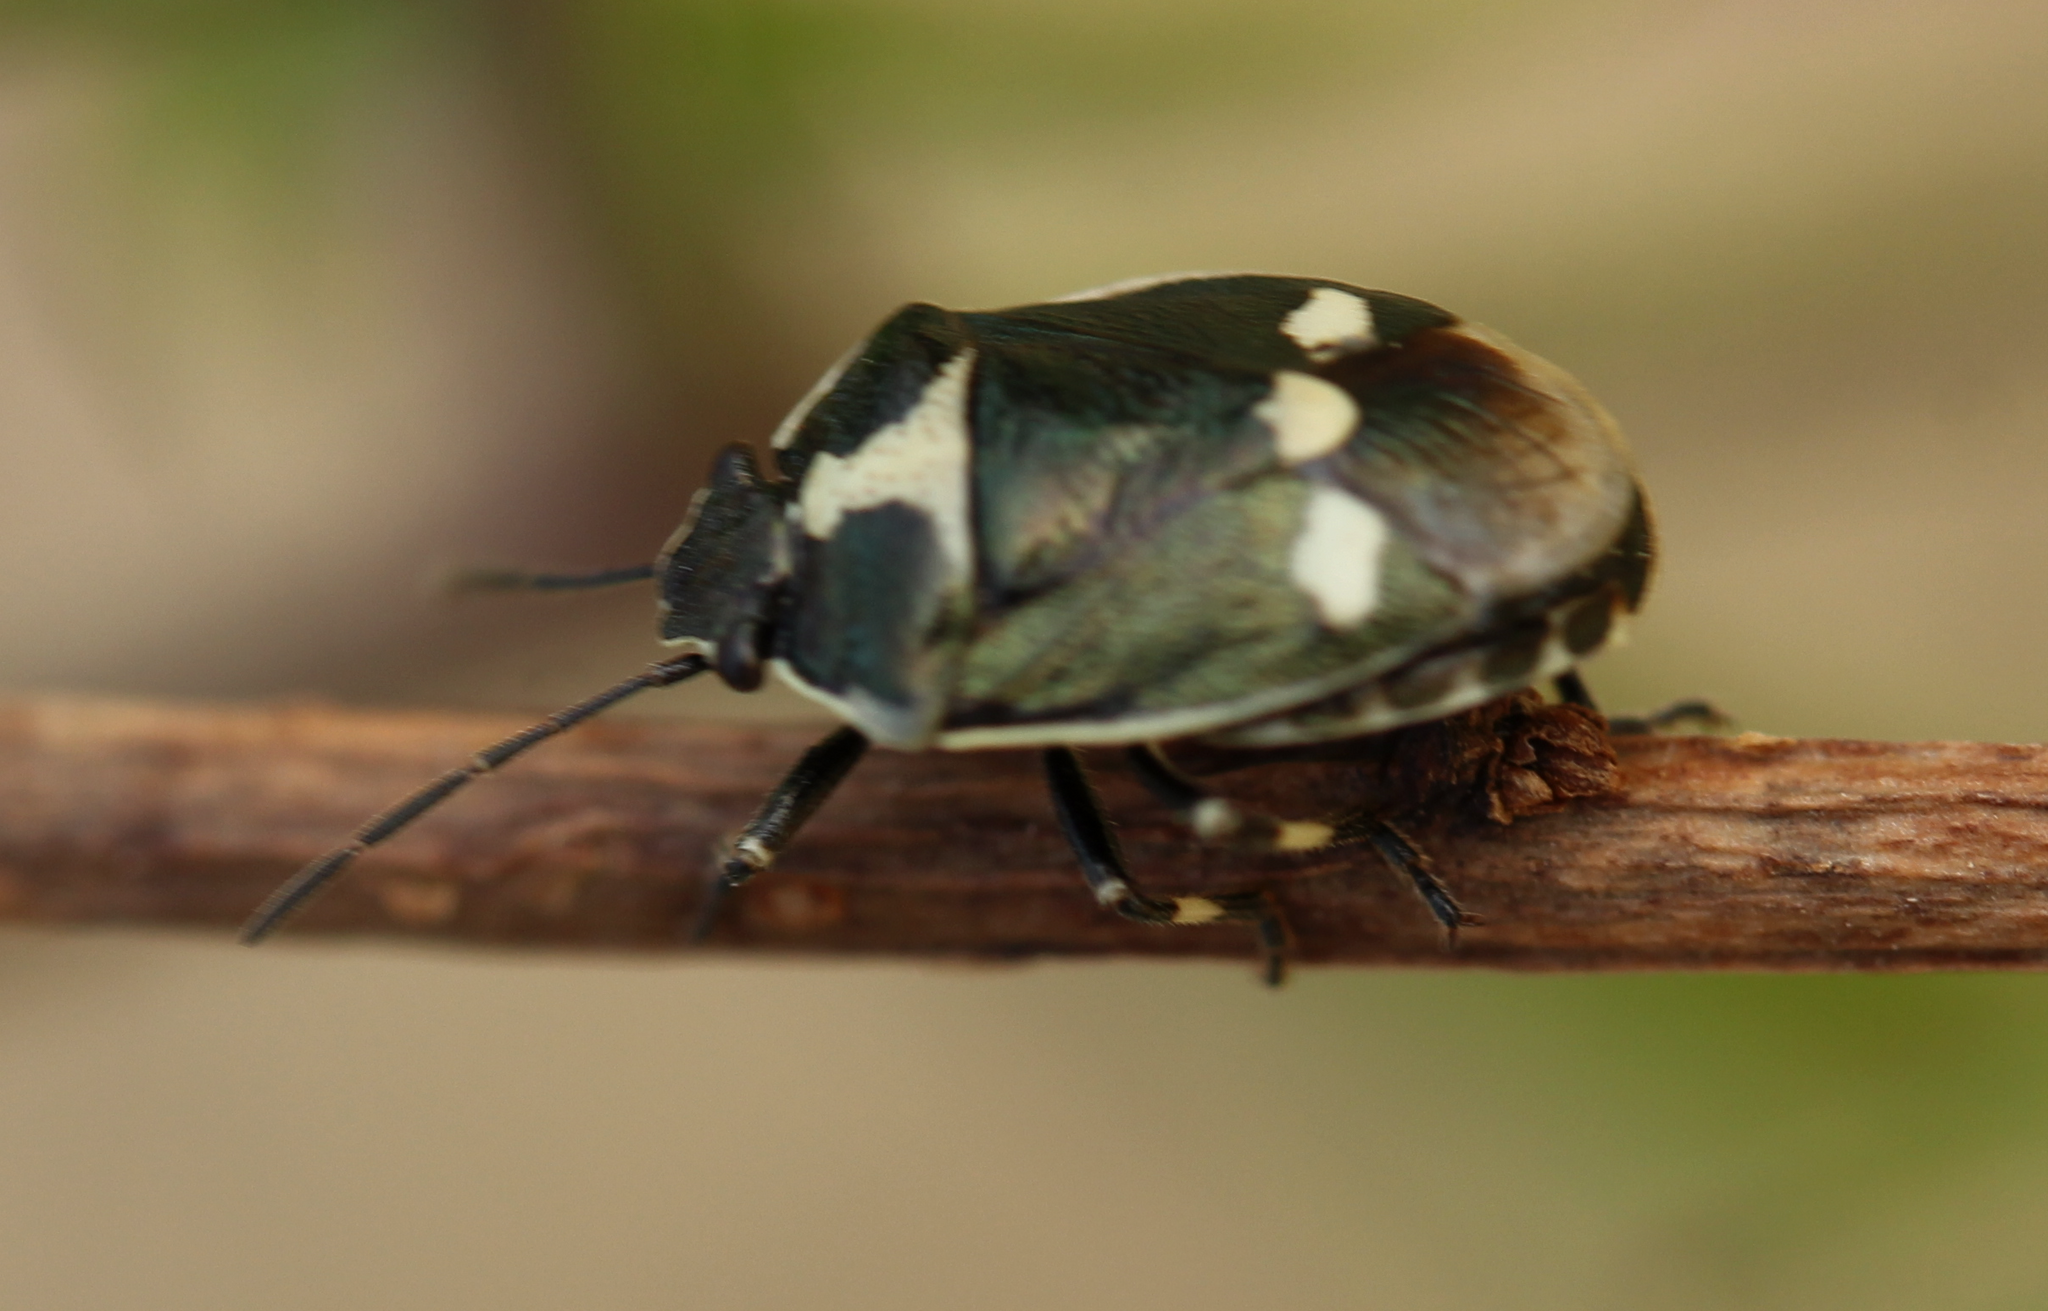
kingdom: Animalia
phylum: Arthropoda
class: Insecta
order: Hemiptera
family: Pentatomidae
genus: Eurydema
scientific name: Eurydema oleracea
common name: Cabbage bug
